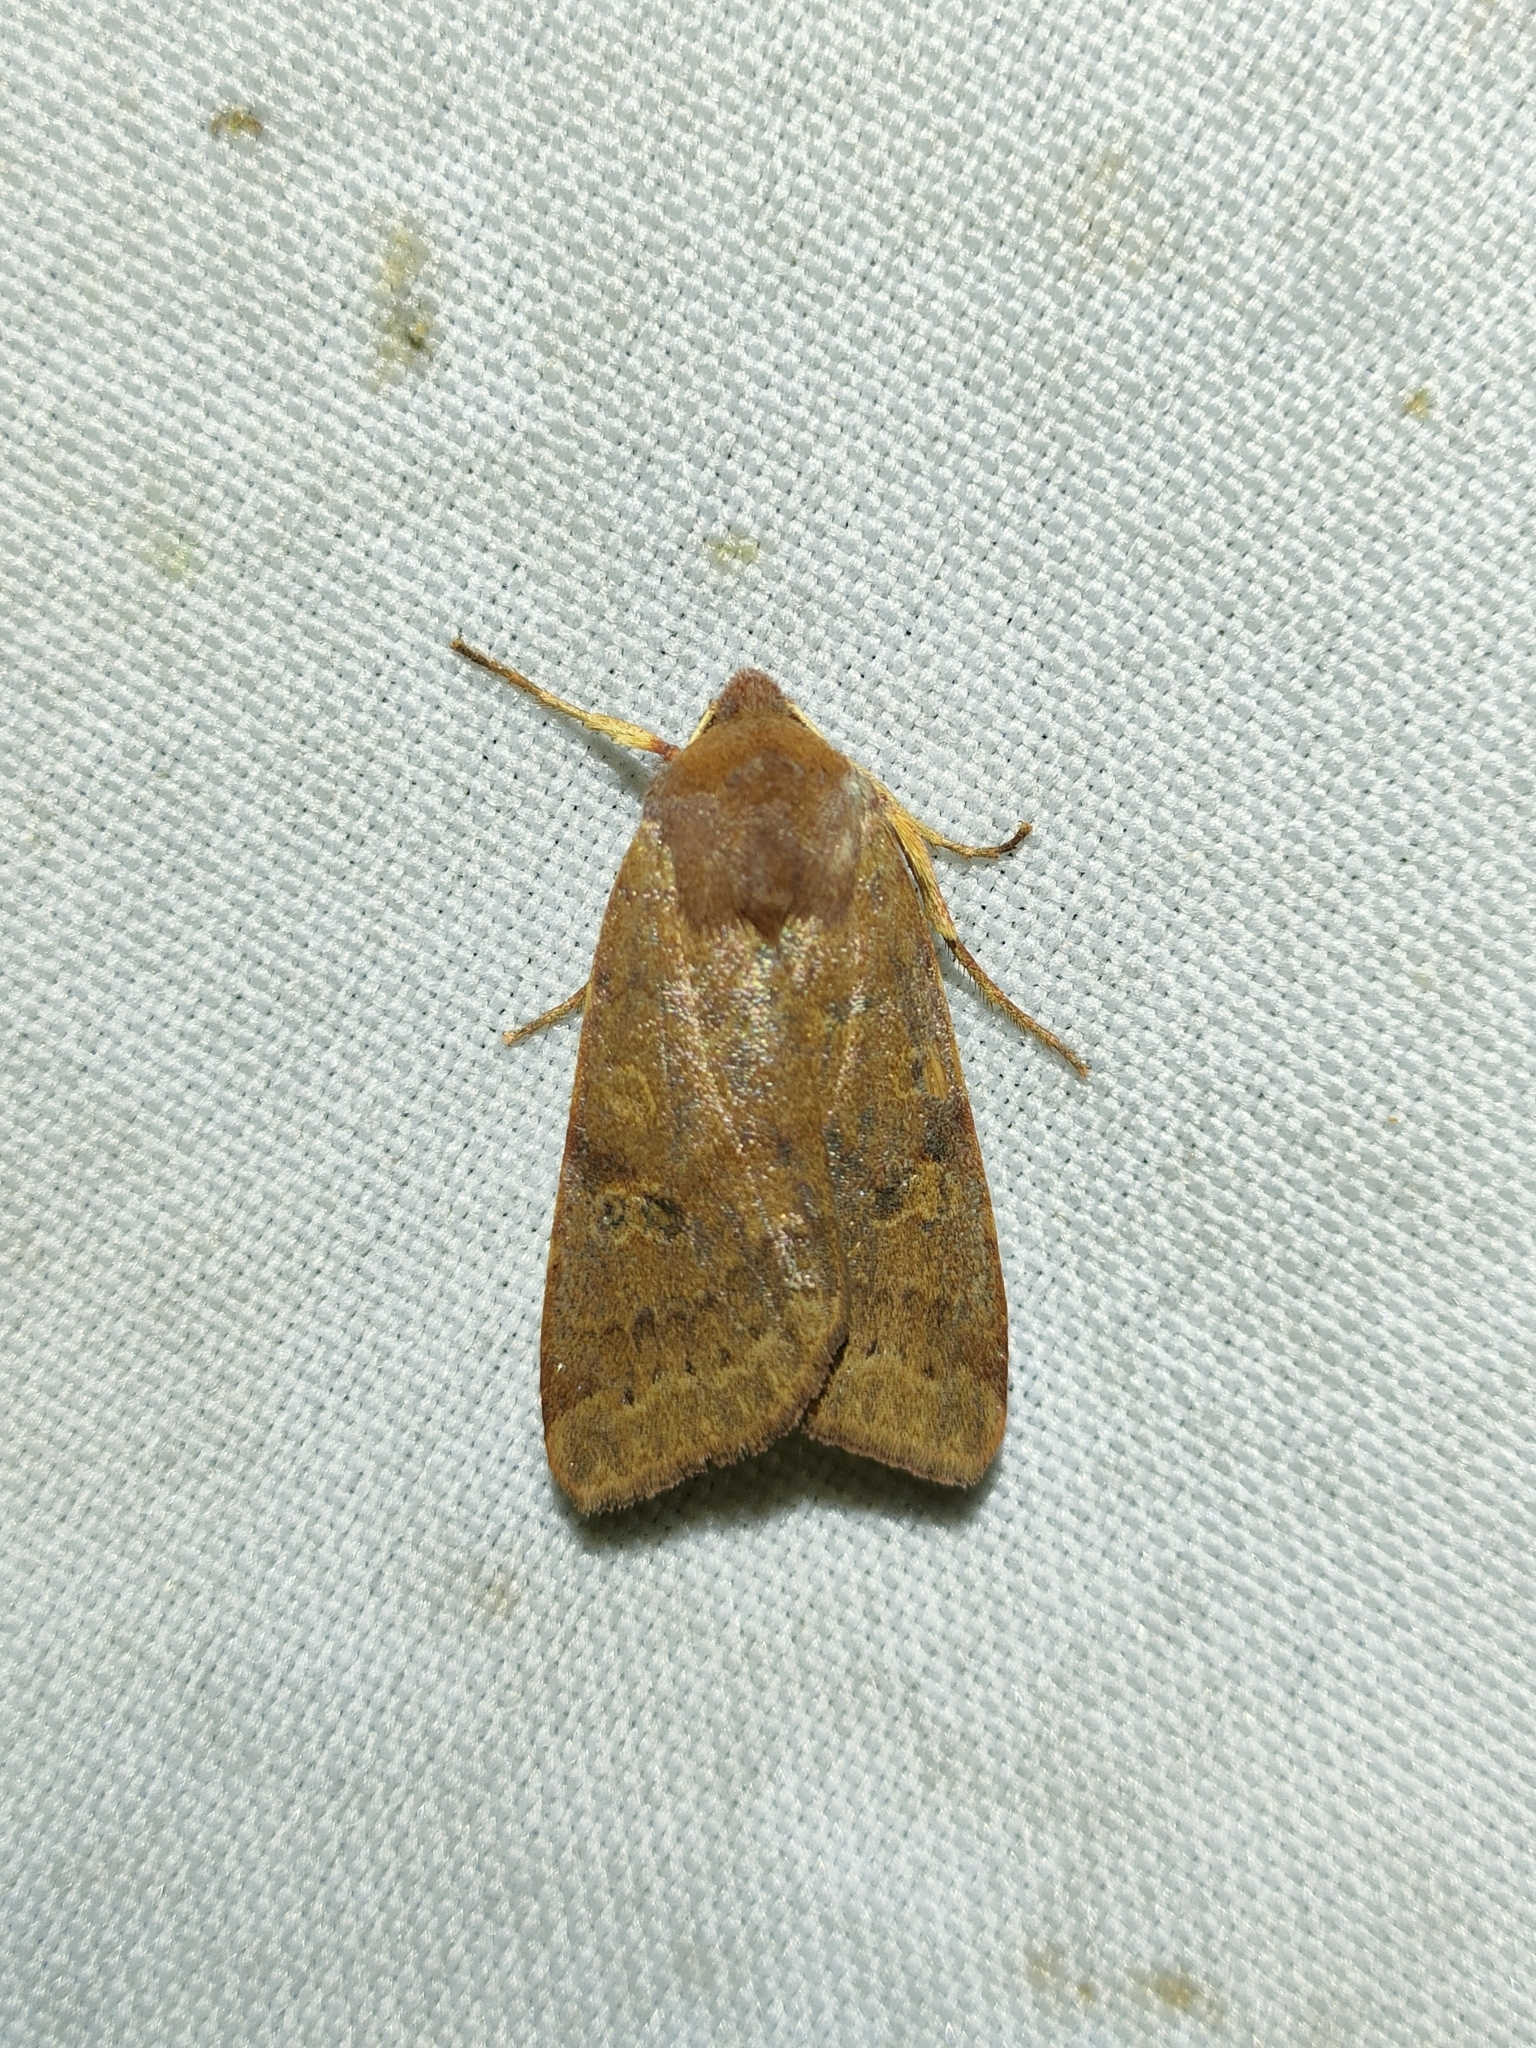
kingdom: Animalia
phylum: Arthropoda
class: Insecta
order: Lepidoptera
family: Noctuidae
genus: Agrochola
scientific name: Agrochola helvola
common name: Flounced chestnut
